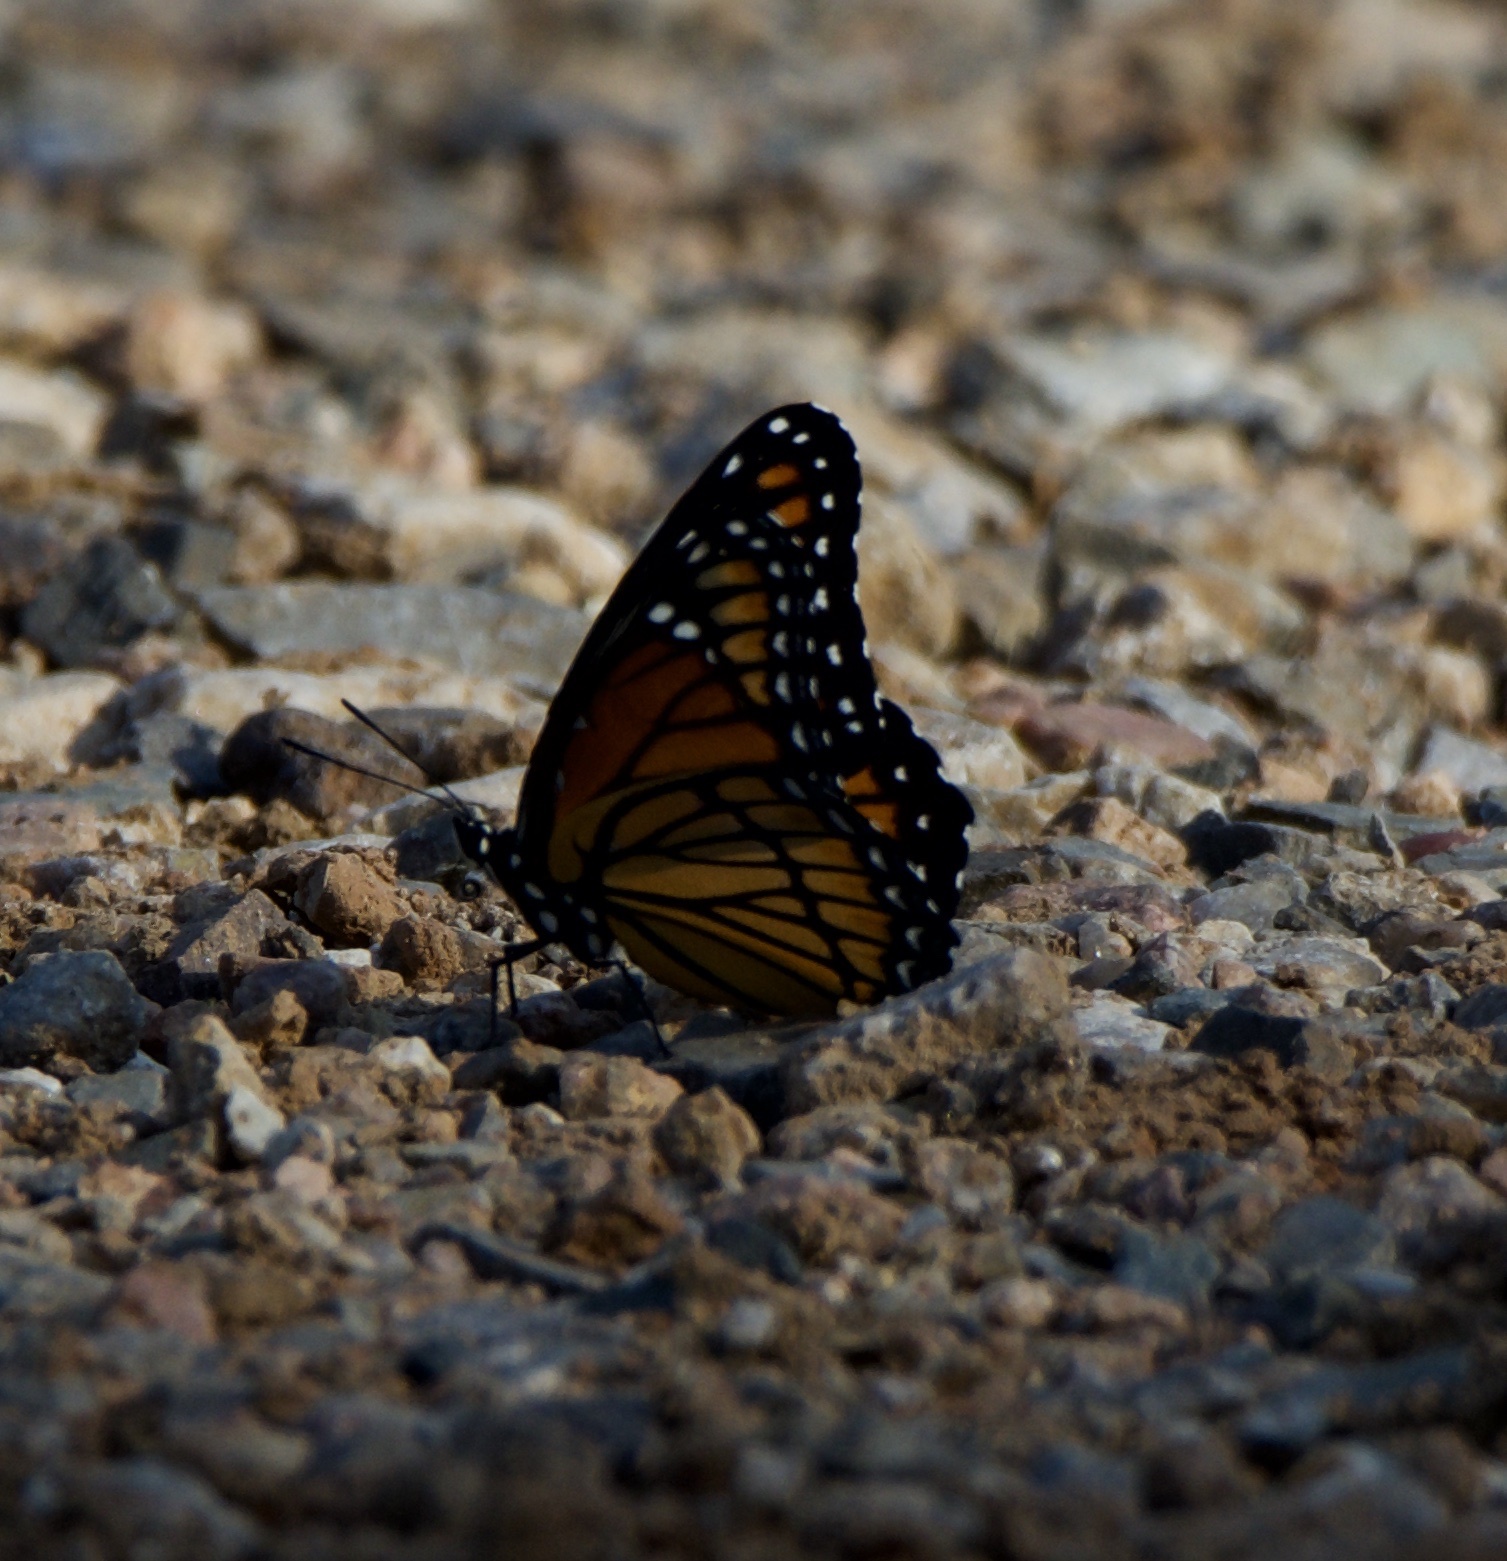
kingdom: Animalia
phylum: Arthropoda
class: Insecta
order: Lepidoptera
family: Nymphalidae
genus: Limenitis
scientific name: Limenitis archippus
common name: Viceroy
